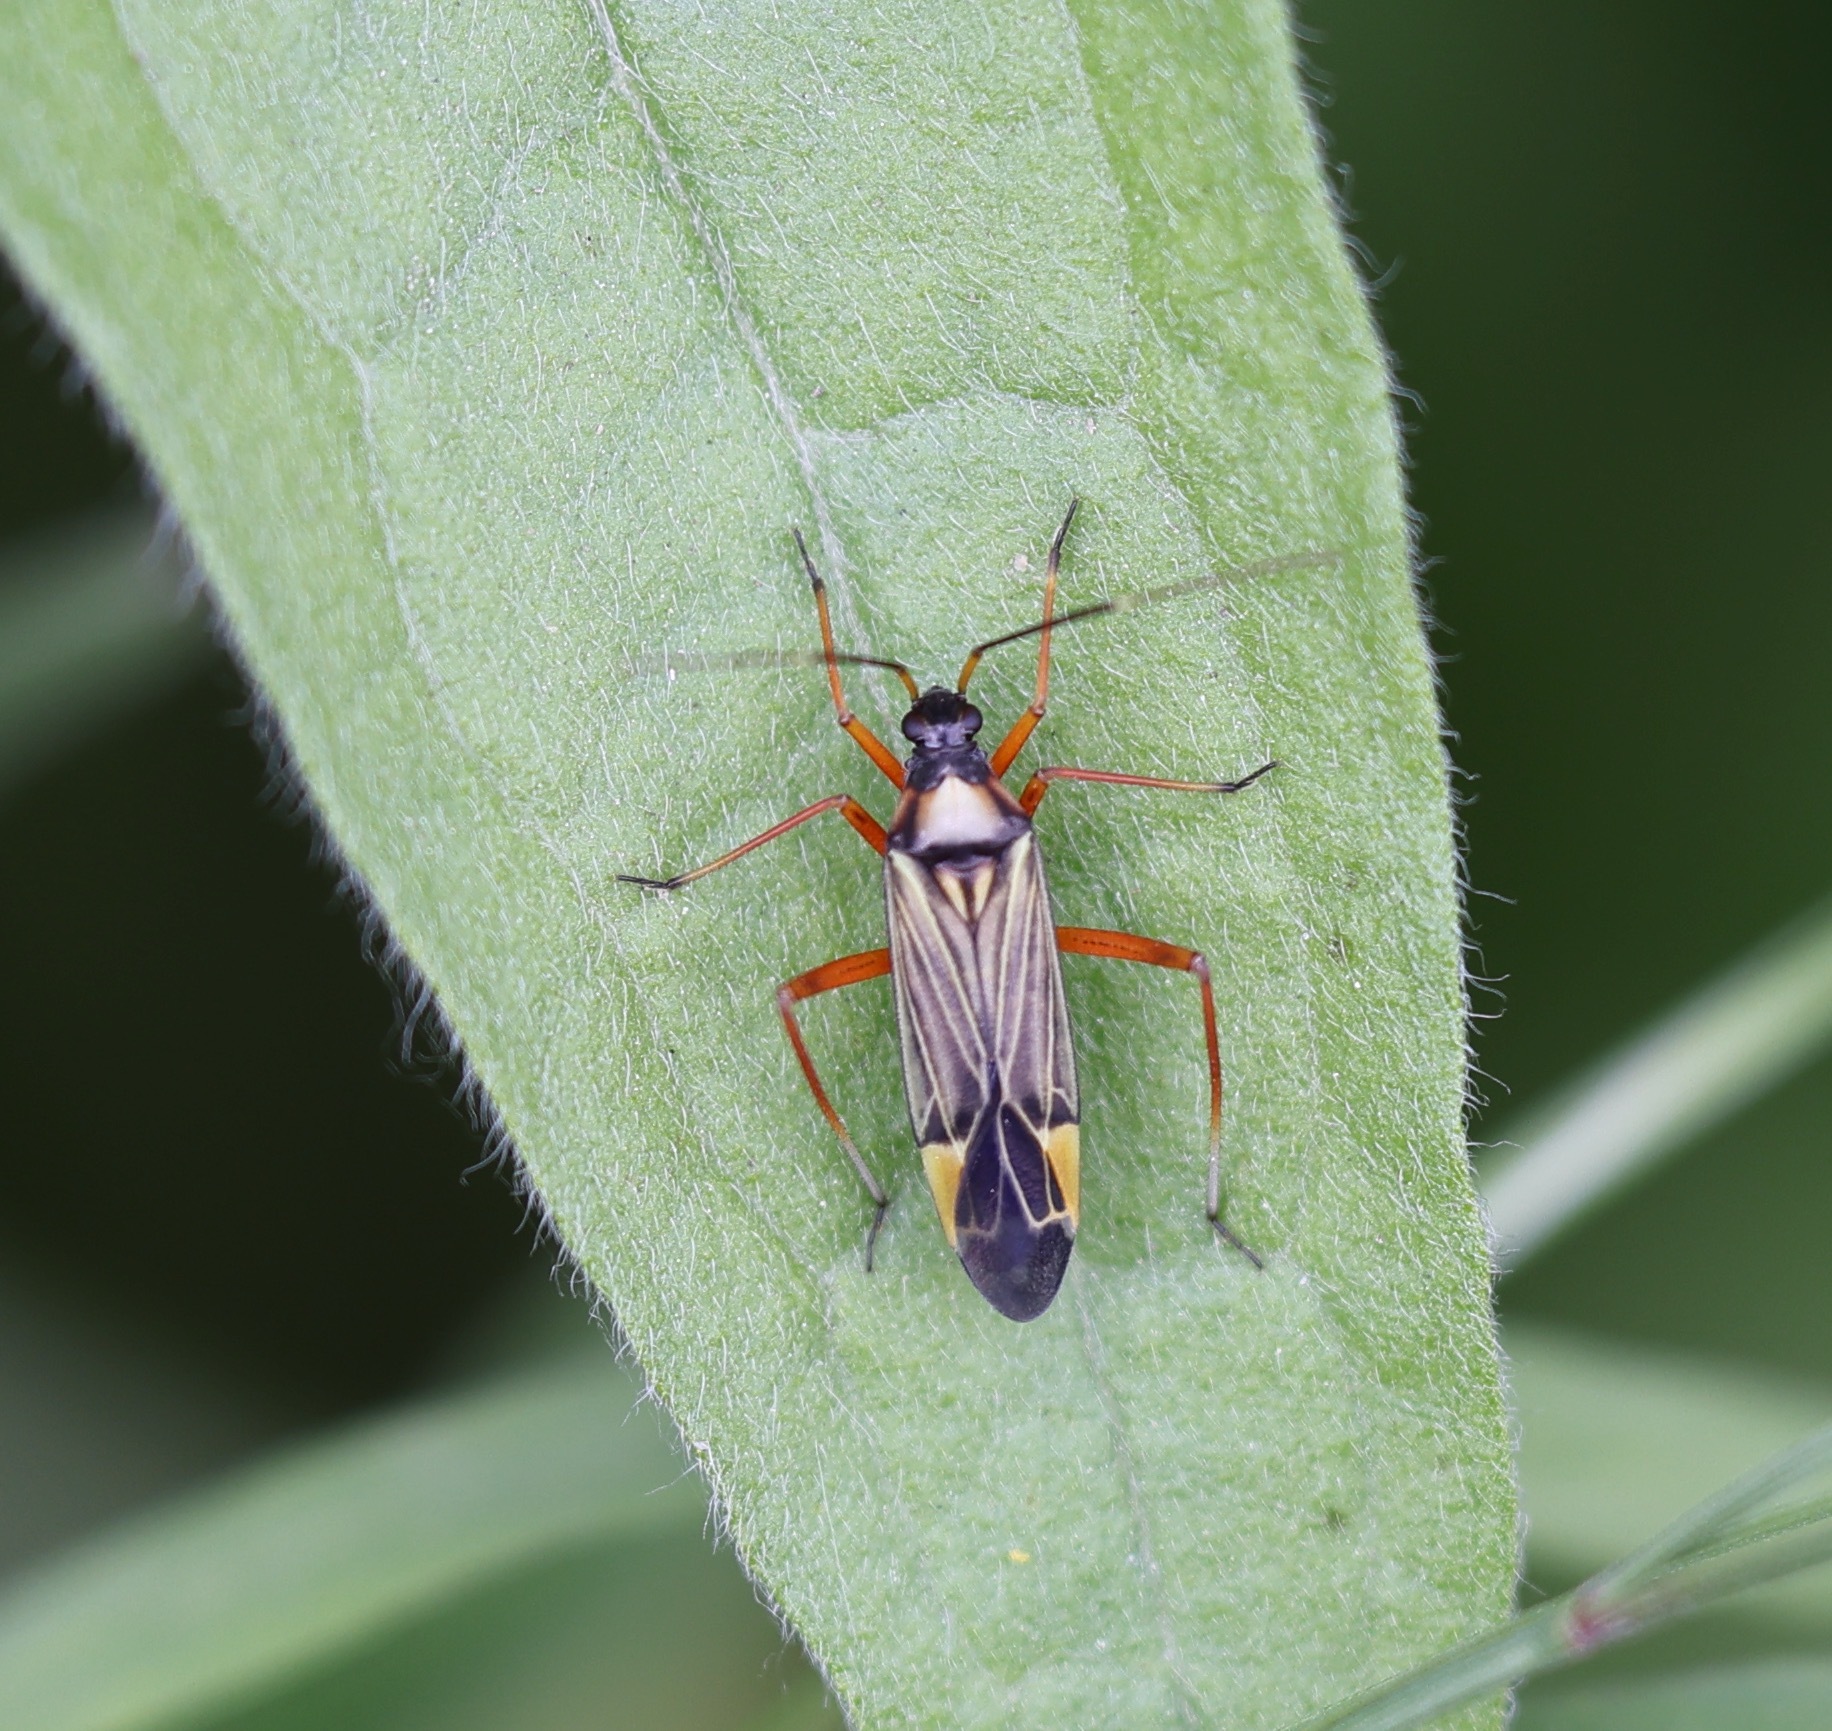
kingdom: Animalia
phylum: Arthropoda
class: Insecta
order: Hemiptera
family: Miridae
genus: Miris
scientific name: Miris striatus
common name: Fine streaked bugkin
